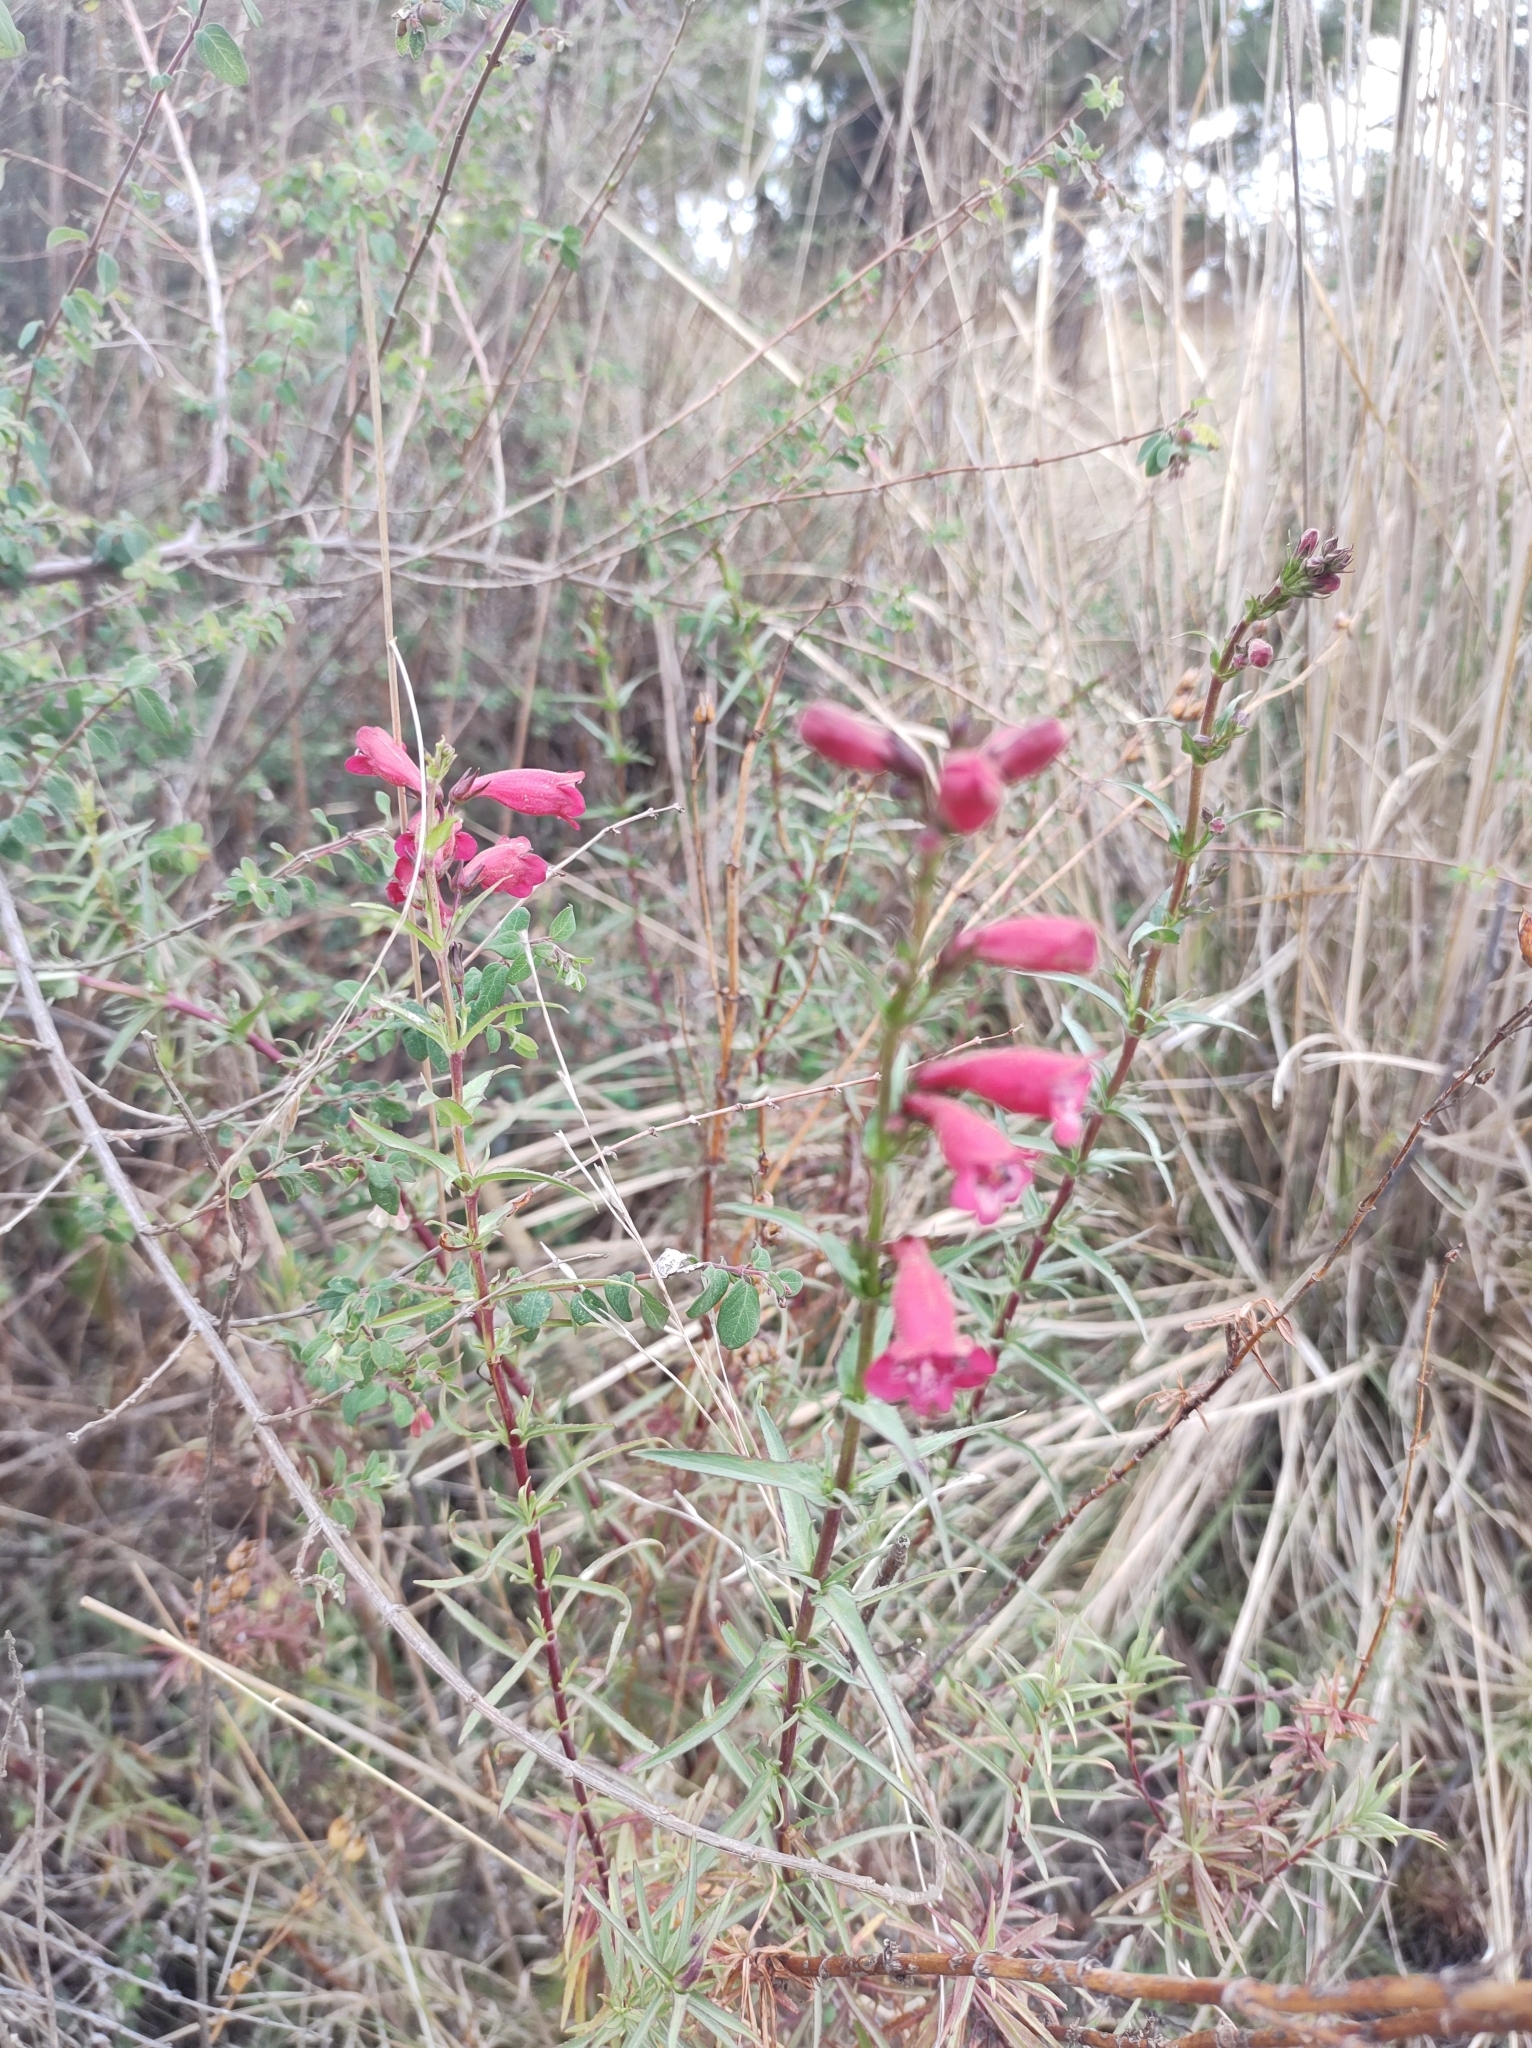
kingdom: Plantae
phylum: Tracheophyta
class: Magnoliopsida
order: Lamiales
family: Plantaginaceae
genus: Penstemon
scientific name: Penstemon roseus
